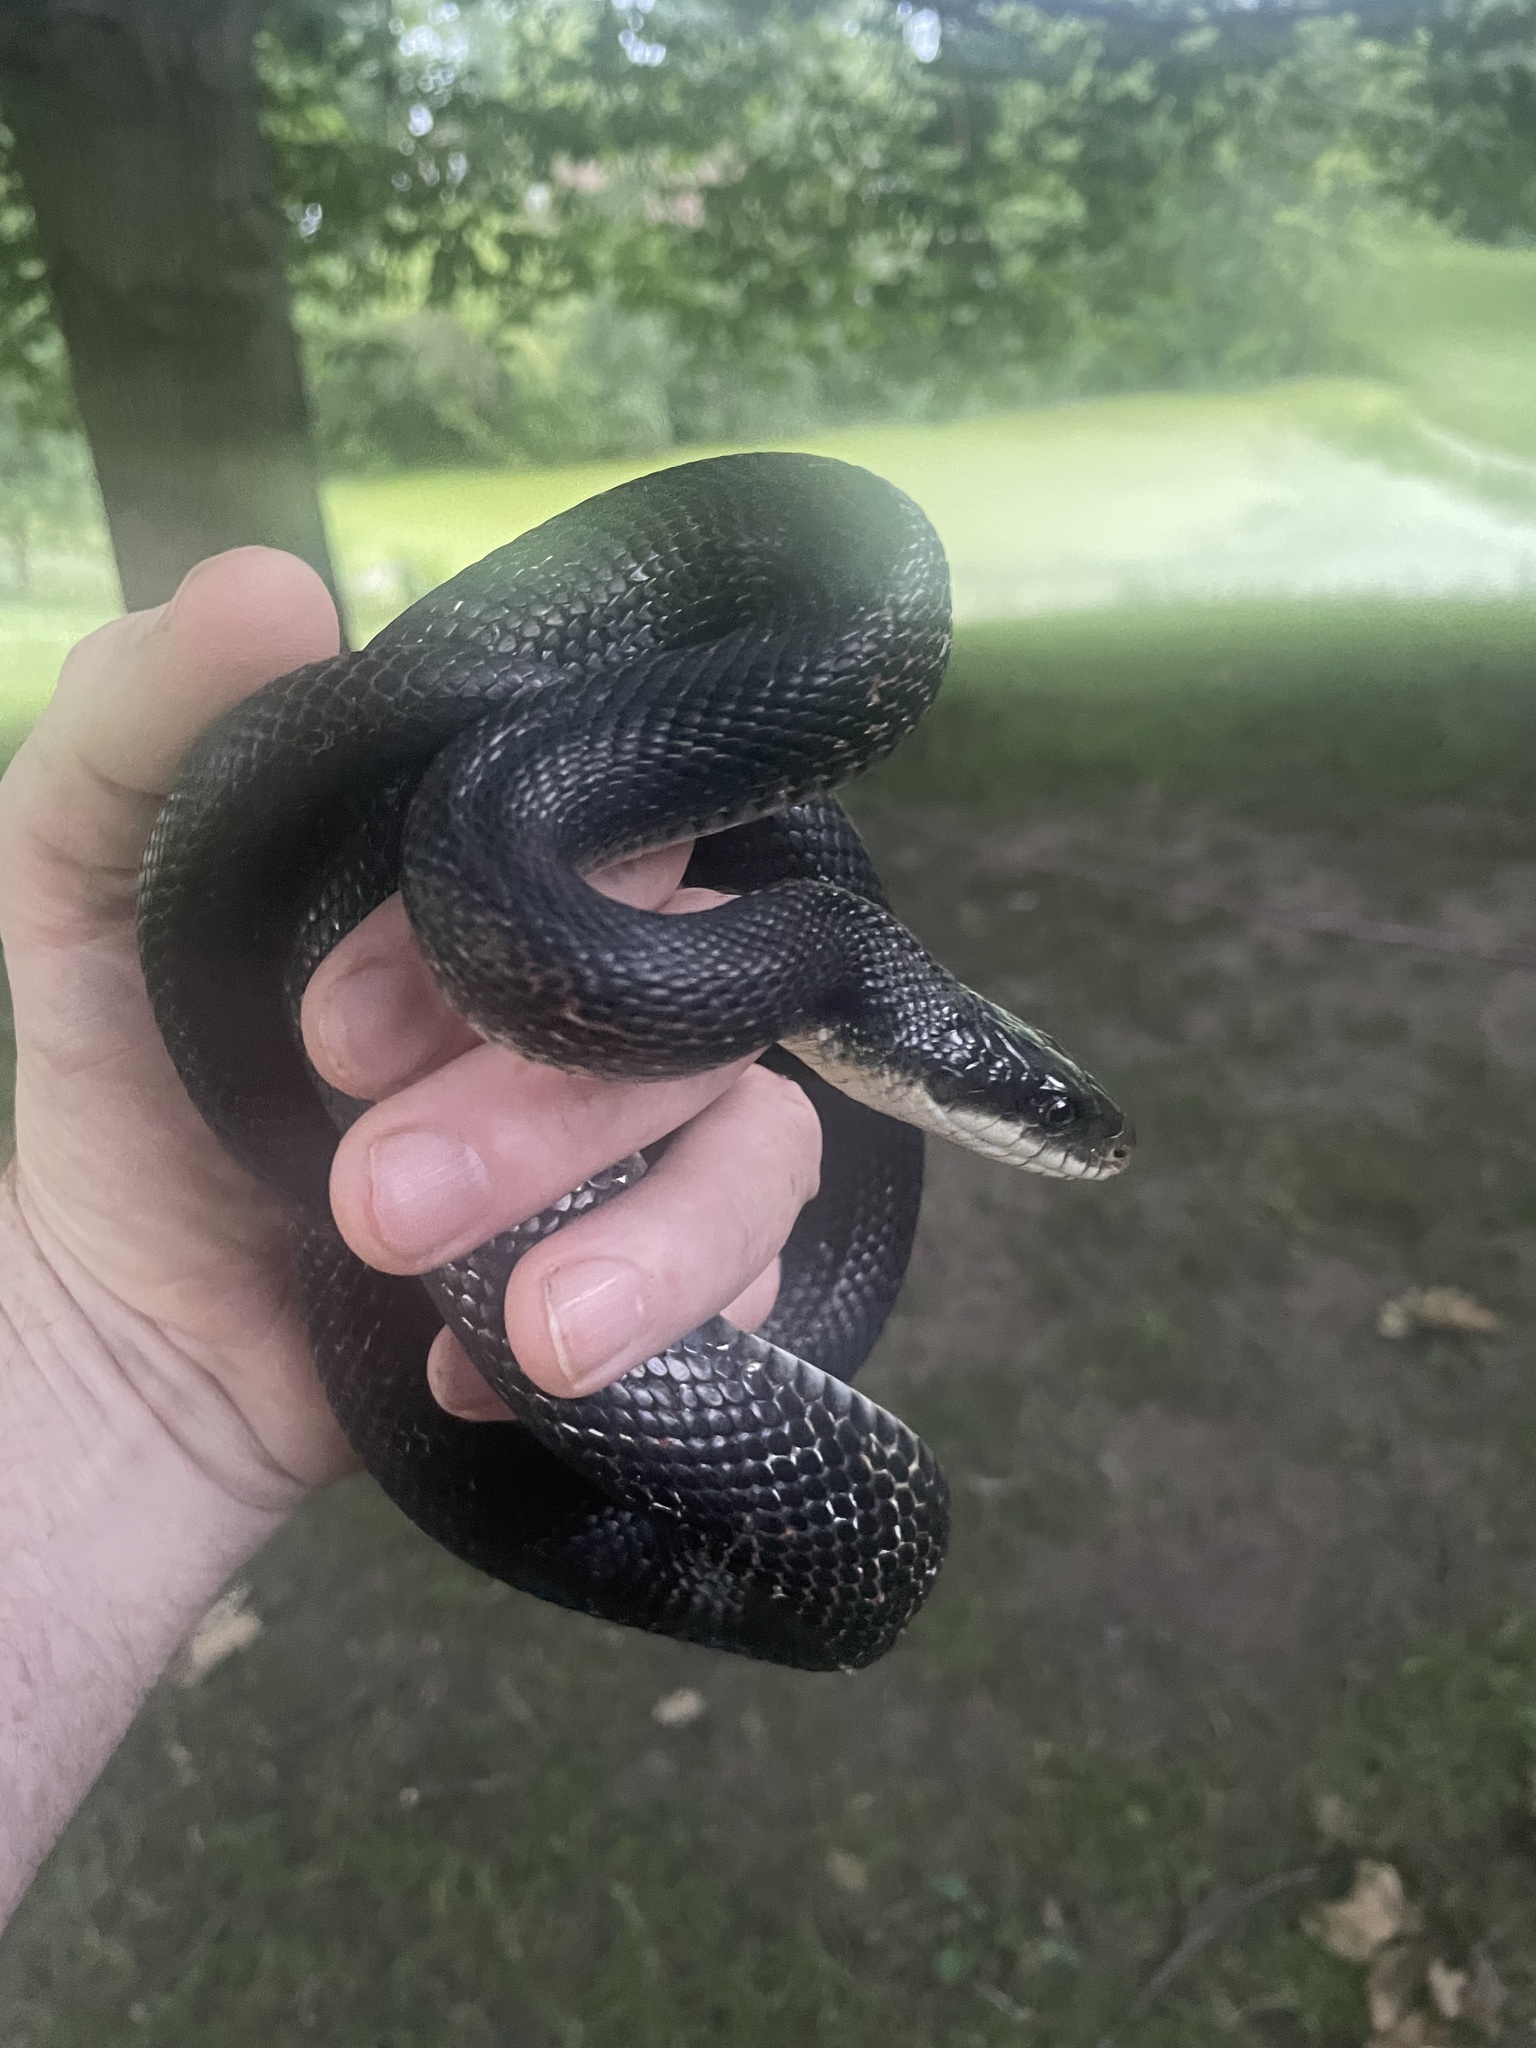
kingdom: Animalia
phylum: Chordata
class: Squamata
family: Colubridae
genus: Pantherophis
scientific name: Pantherophis obsoletus
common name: Black rat snake
